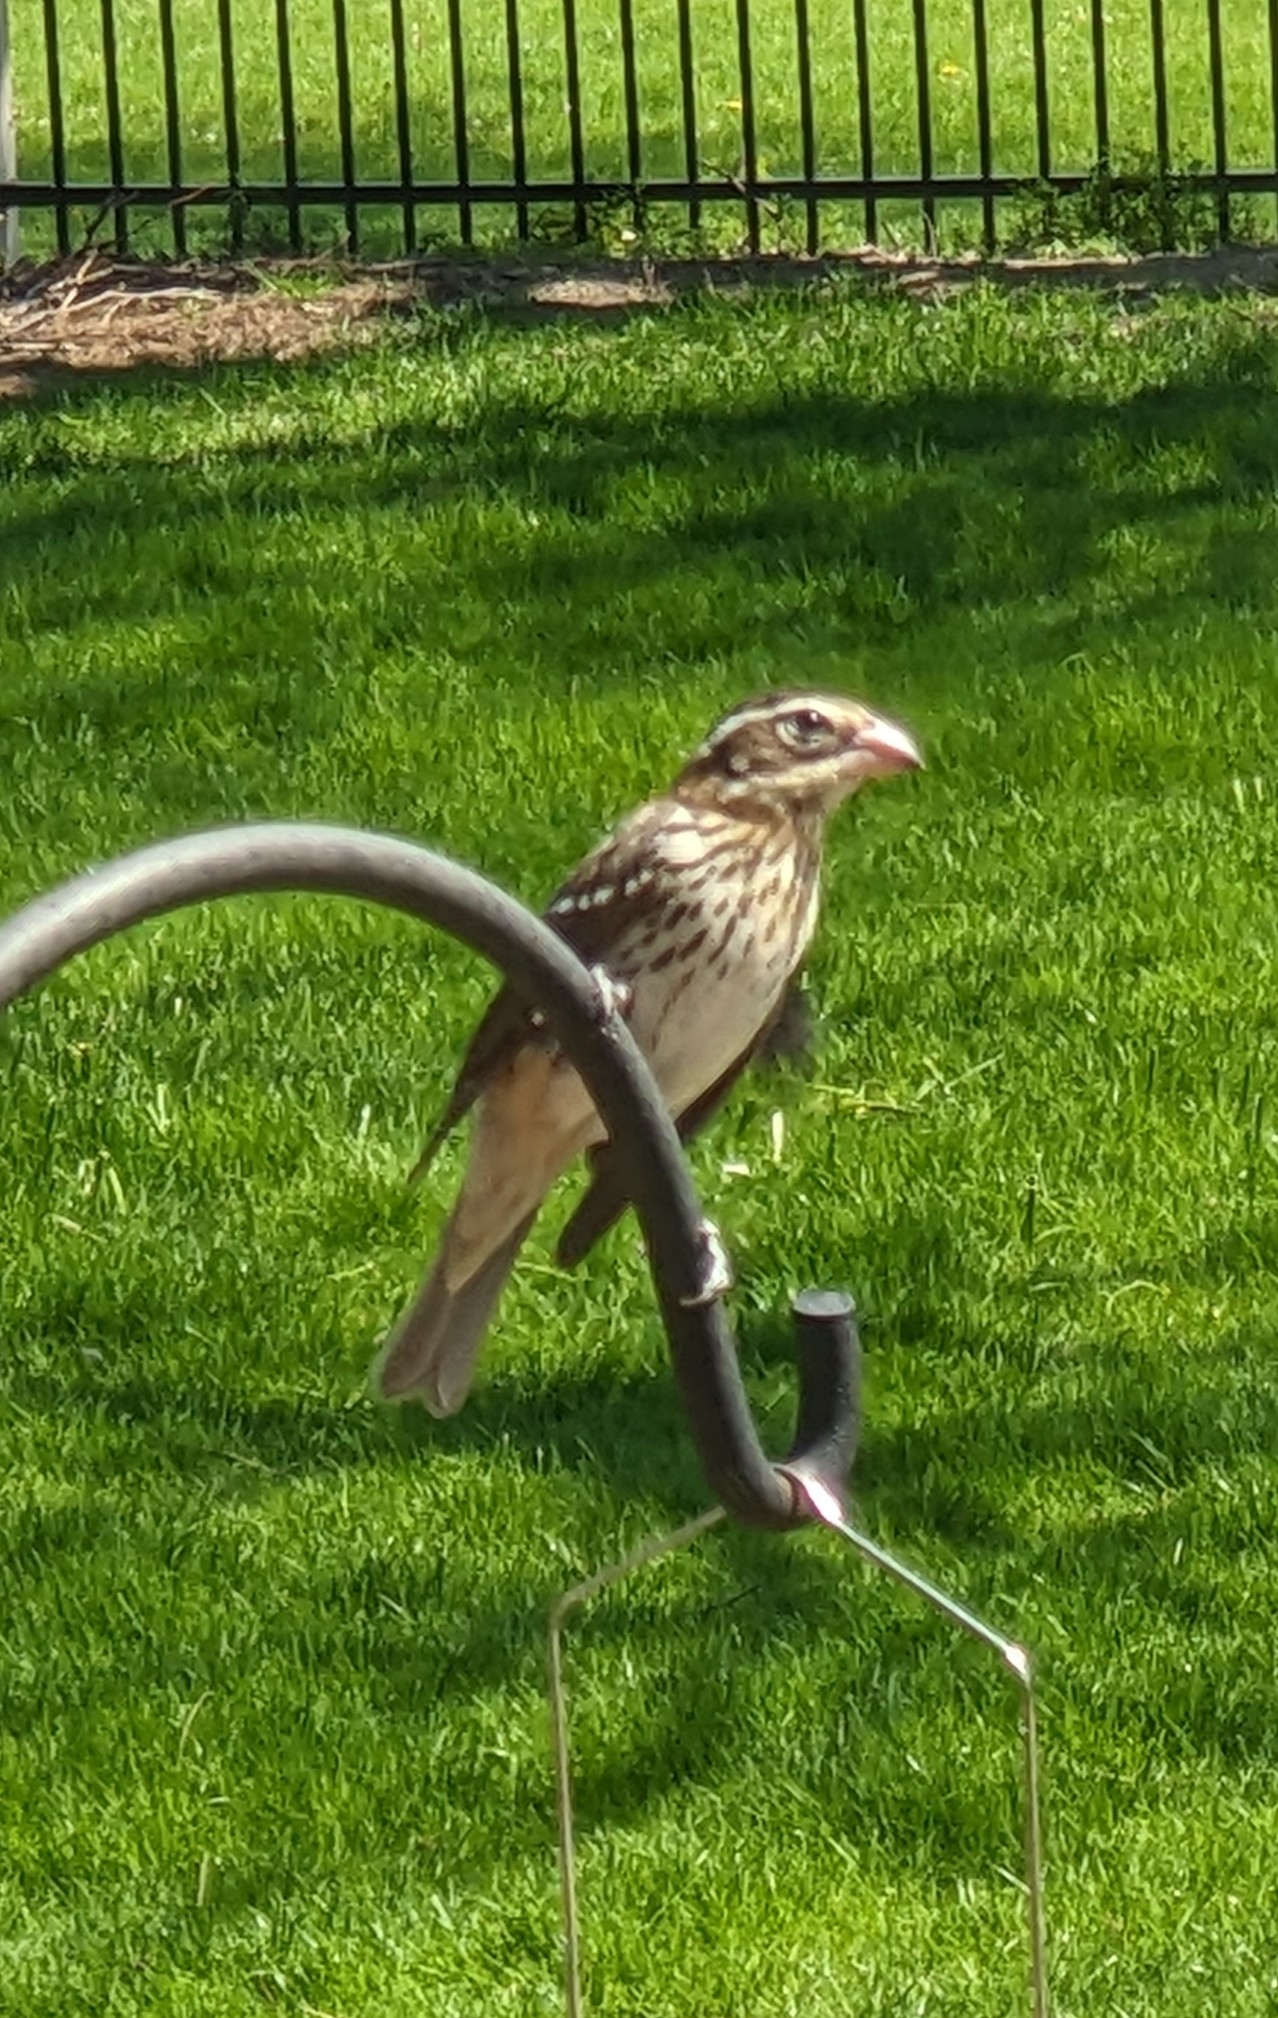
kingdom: Animalia
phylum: Chordata
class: Aves
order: Passeriformes
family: Cardinalidae
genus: Pheucticus
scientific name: Pheucticus ludovicianus
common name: Rose-breasted grosbeak
